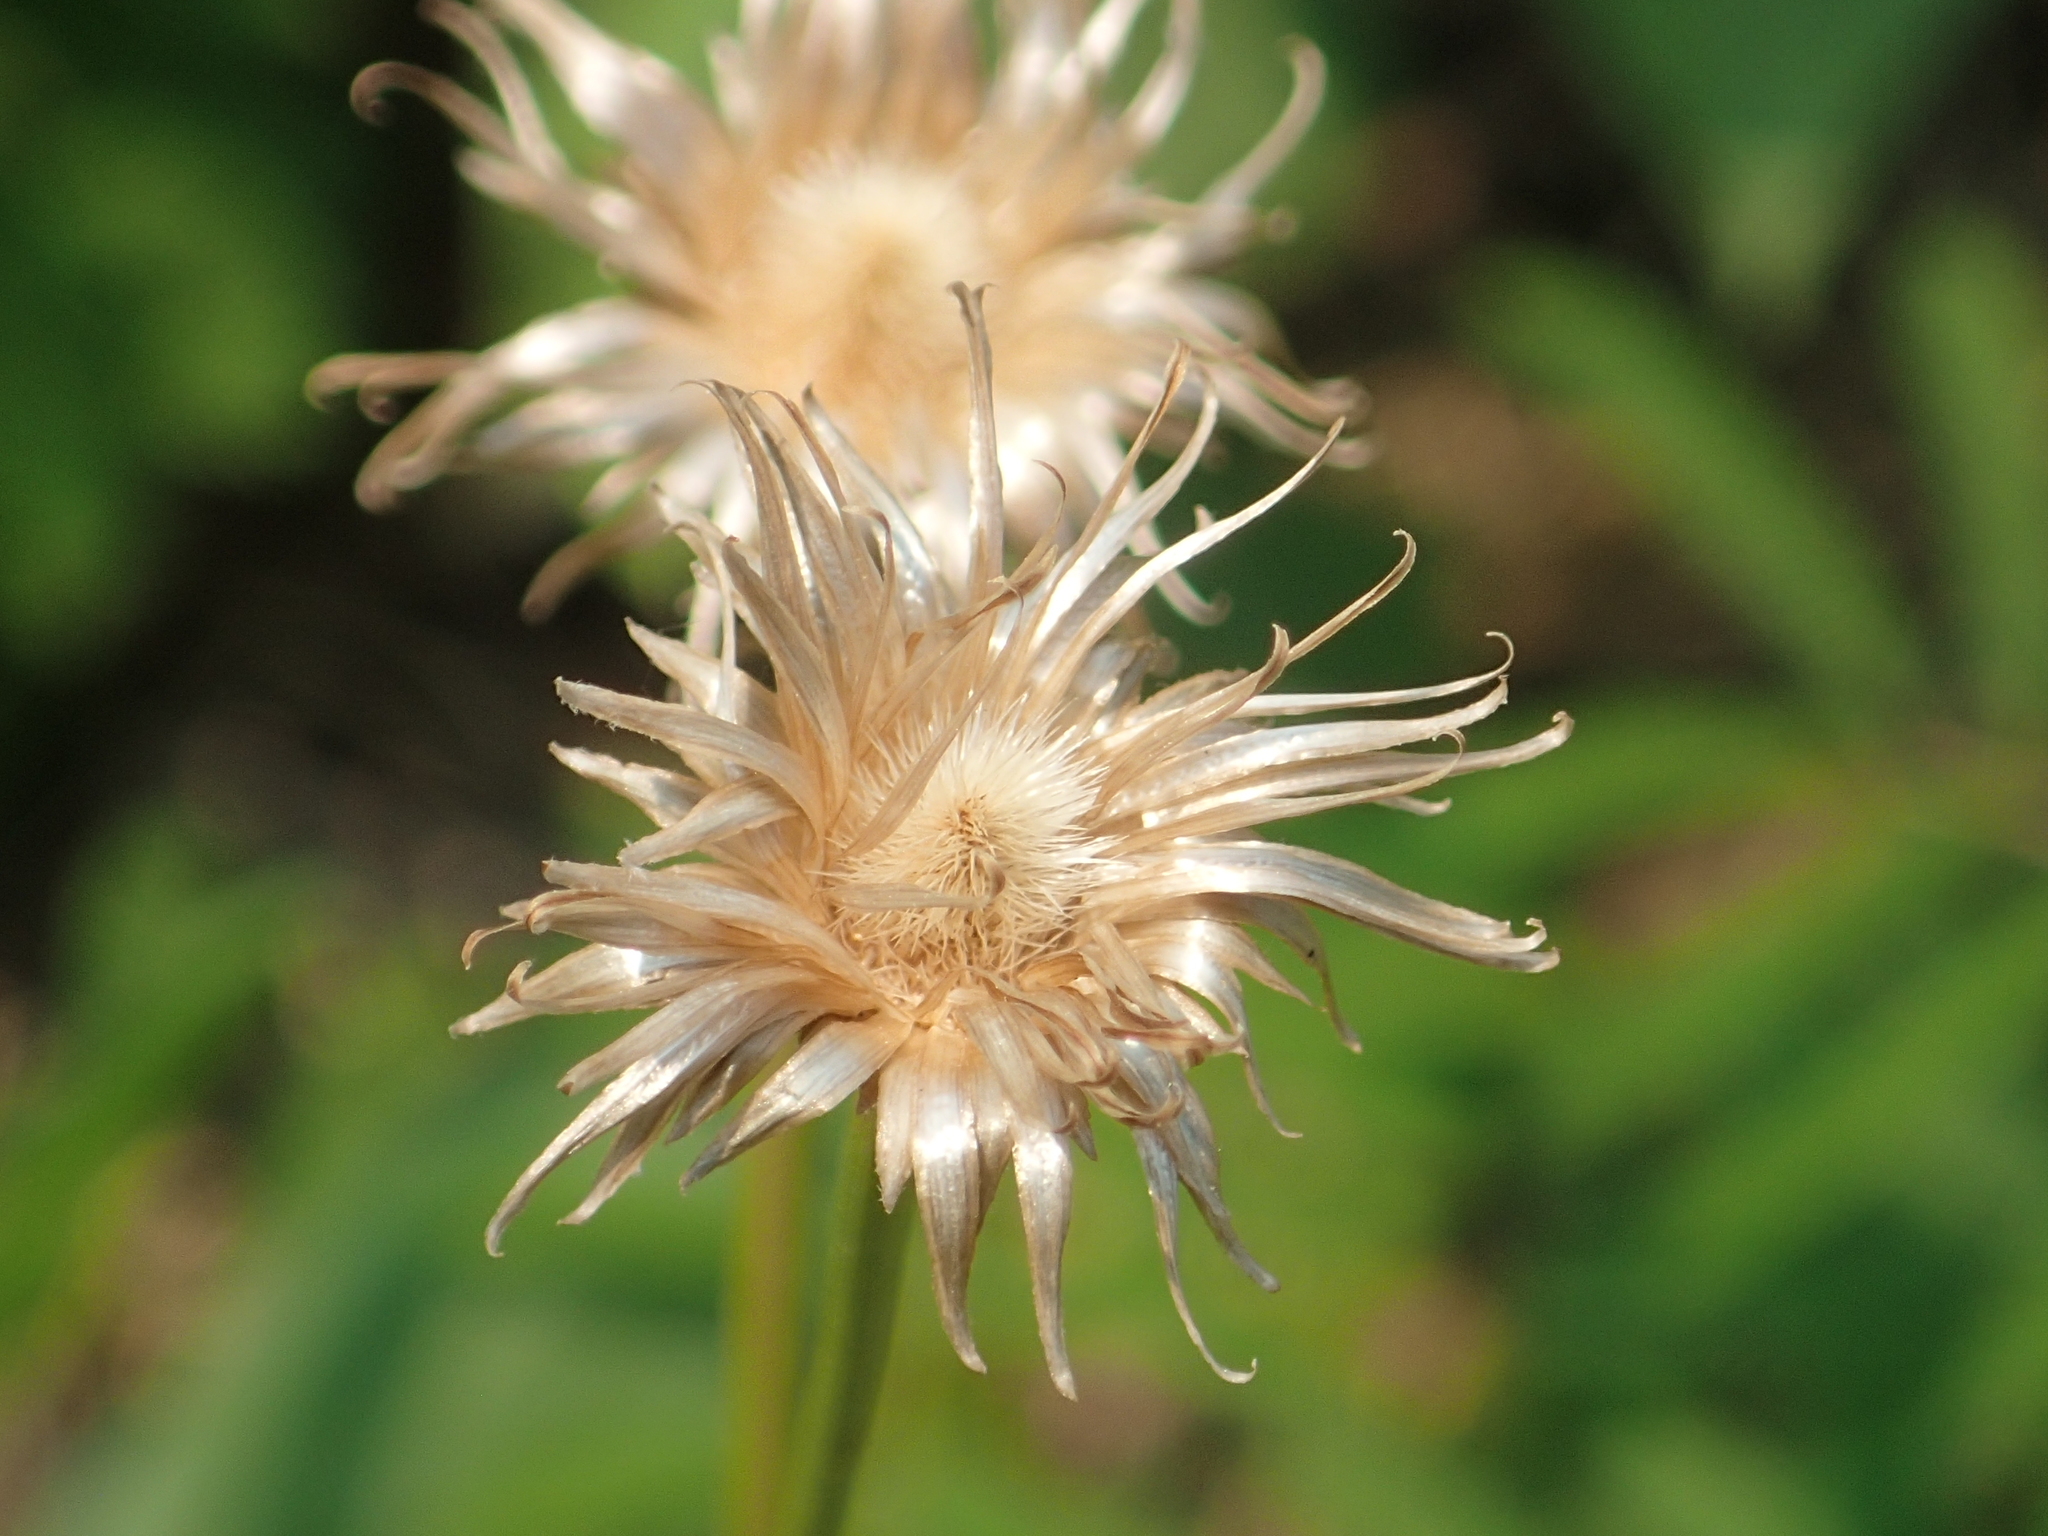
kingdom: Plantae
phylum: Tracheophyta
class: Magnoliopsida
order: Asterales
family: Asteraceae
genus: Saussurea
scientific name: Saussurea lyrata
